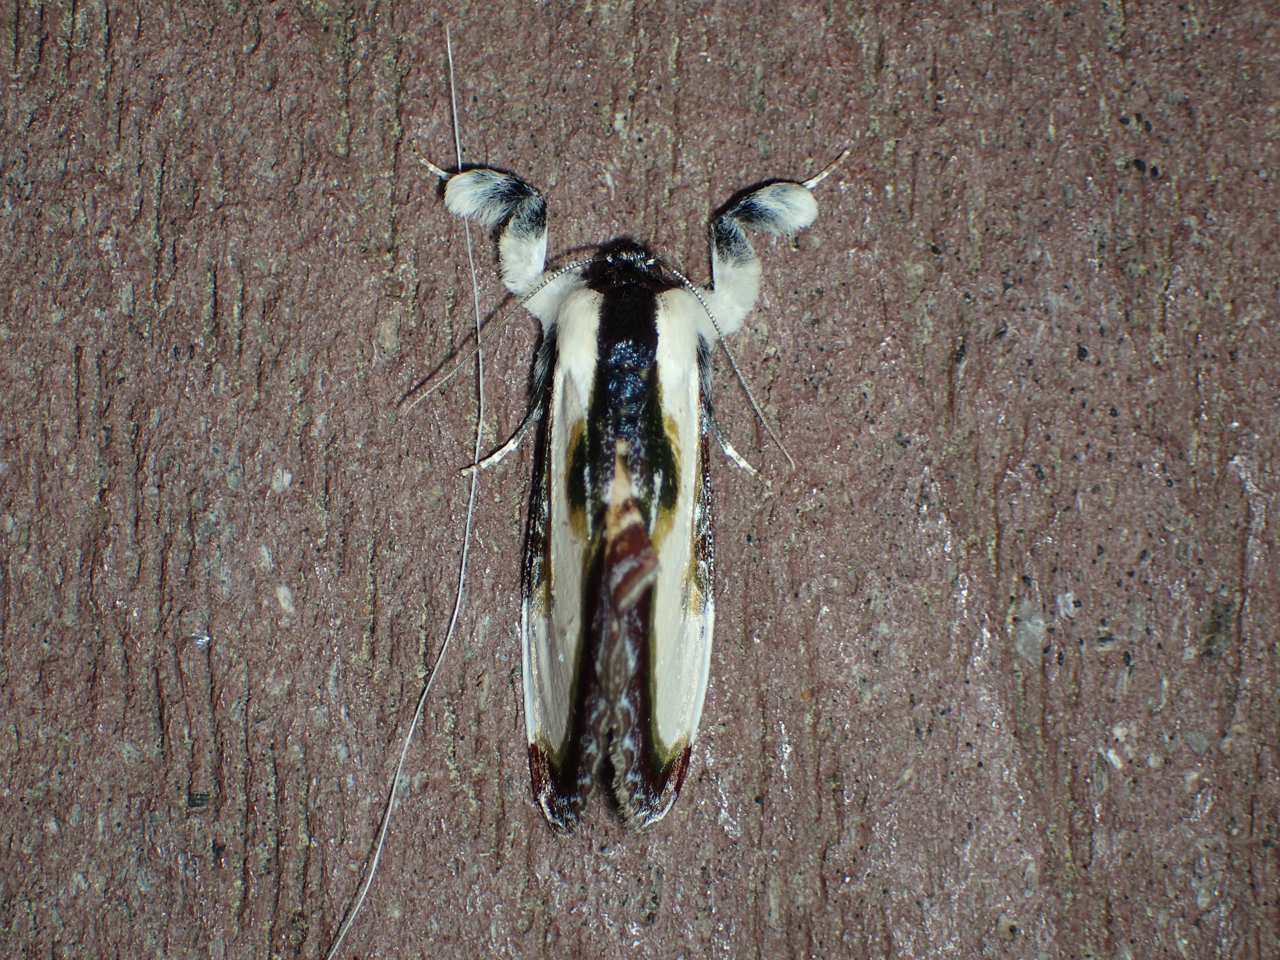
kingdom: Animalia
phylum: Arthropoda
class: Insecta
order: Lepidoptera
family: Noctuidae
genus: Eudryas
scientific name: Eudryas grata
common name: Beautiful wood-nymph
